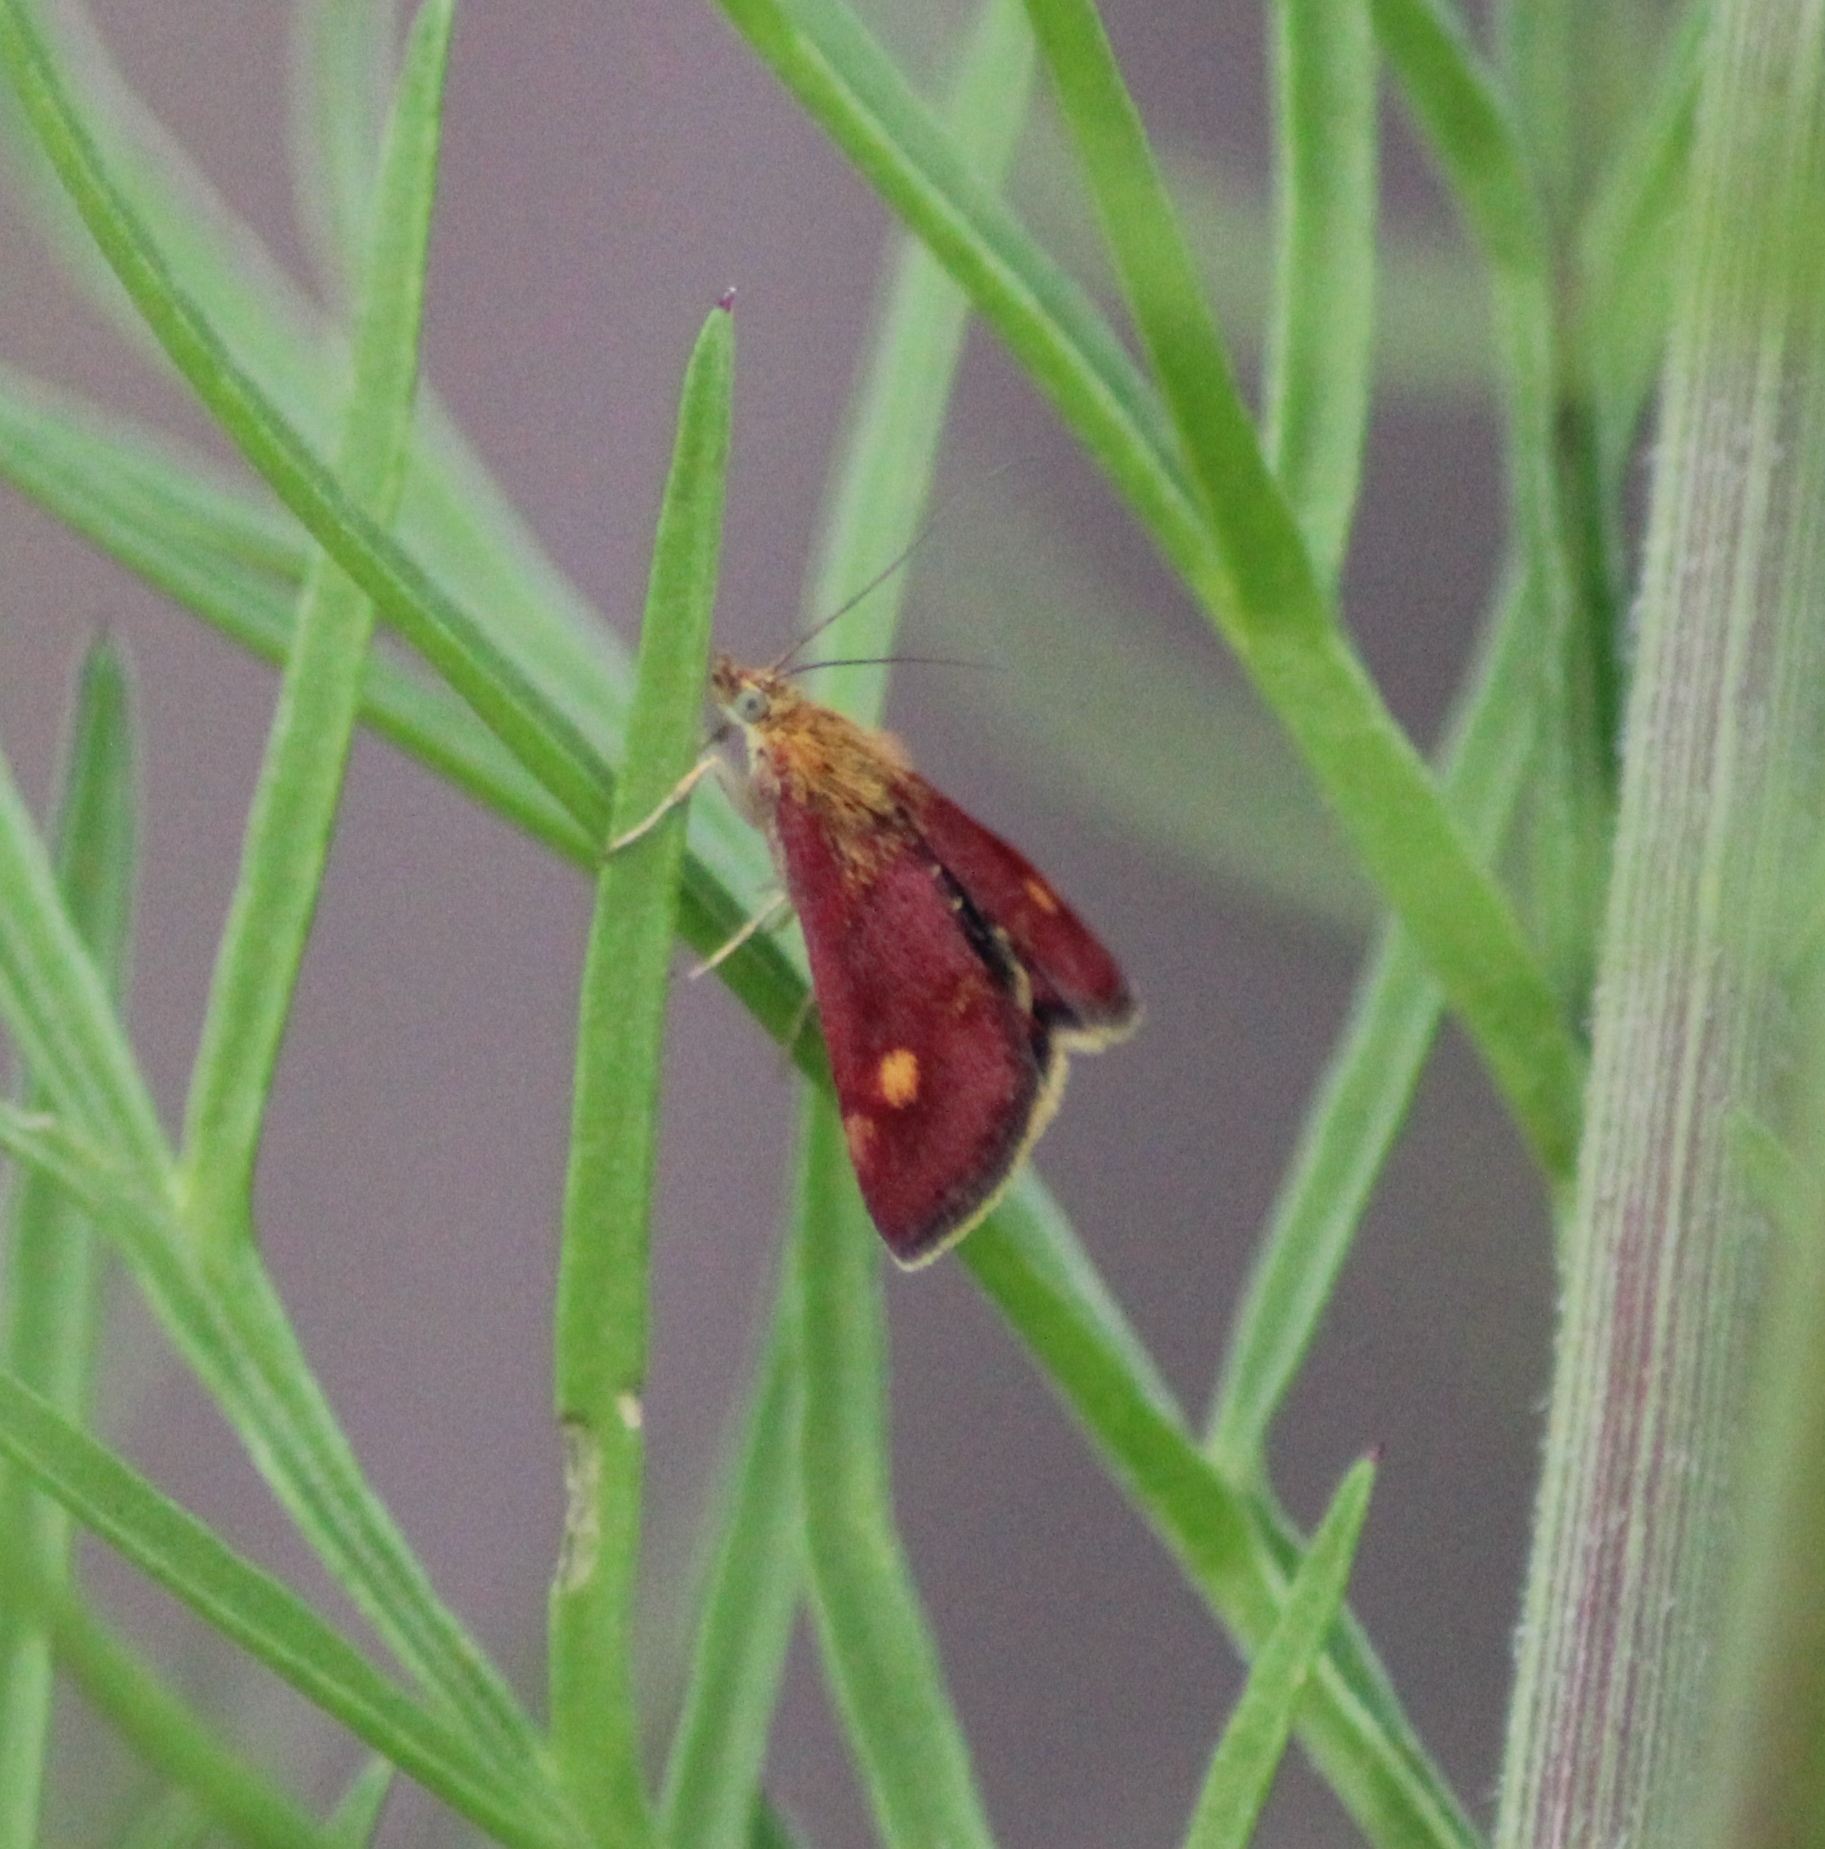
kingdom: Animalia
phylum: Arthropoda
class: Insecta
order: Lepidoptera
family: Crambidae
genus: Pyrausta
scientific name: Pyrausta aurata
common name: Small purple & gold
